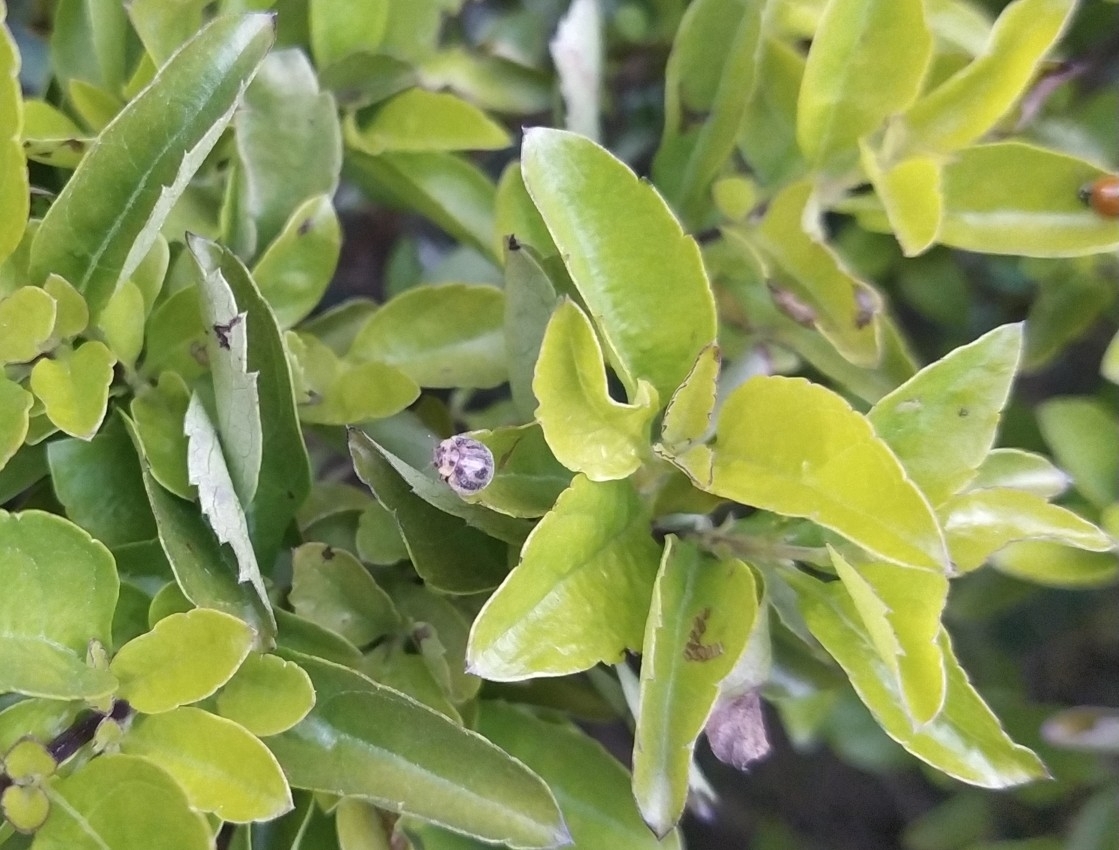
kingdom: Animalia
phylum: Arthropoda
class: Insecta
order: Coleoptera
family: Coccinellidae
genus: Mada
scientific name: Mada inepta
